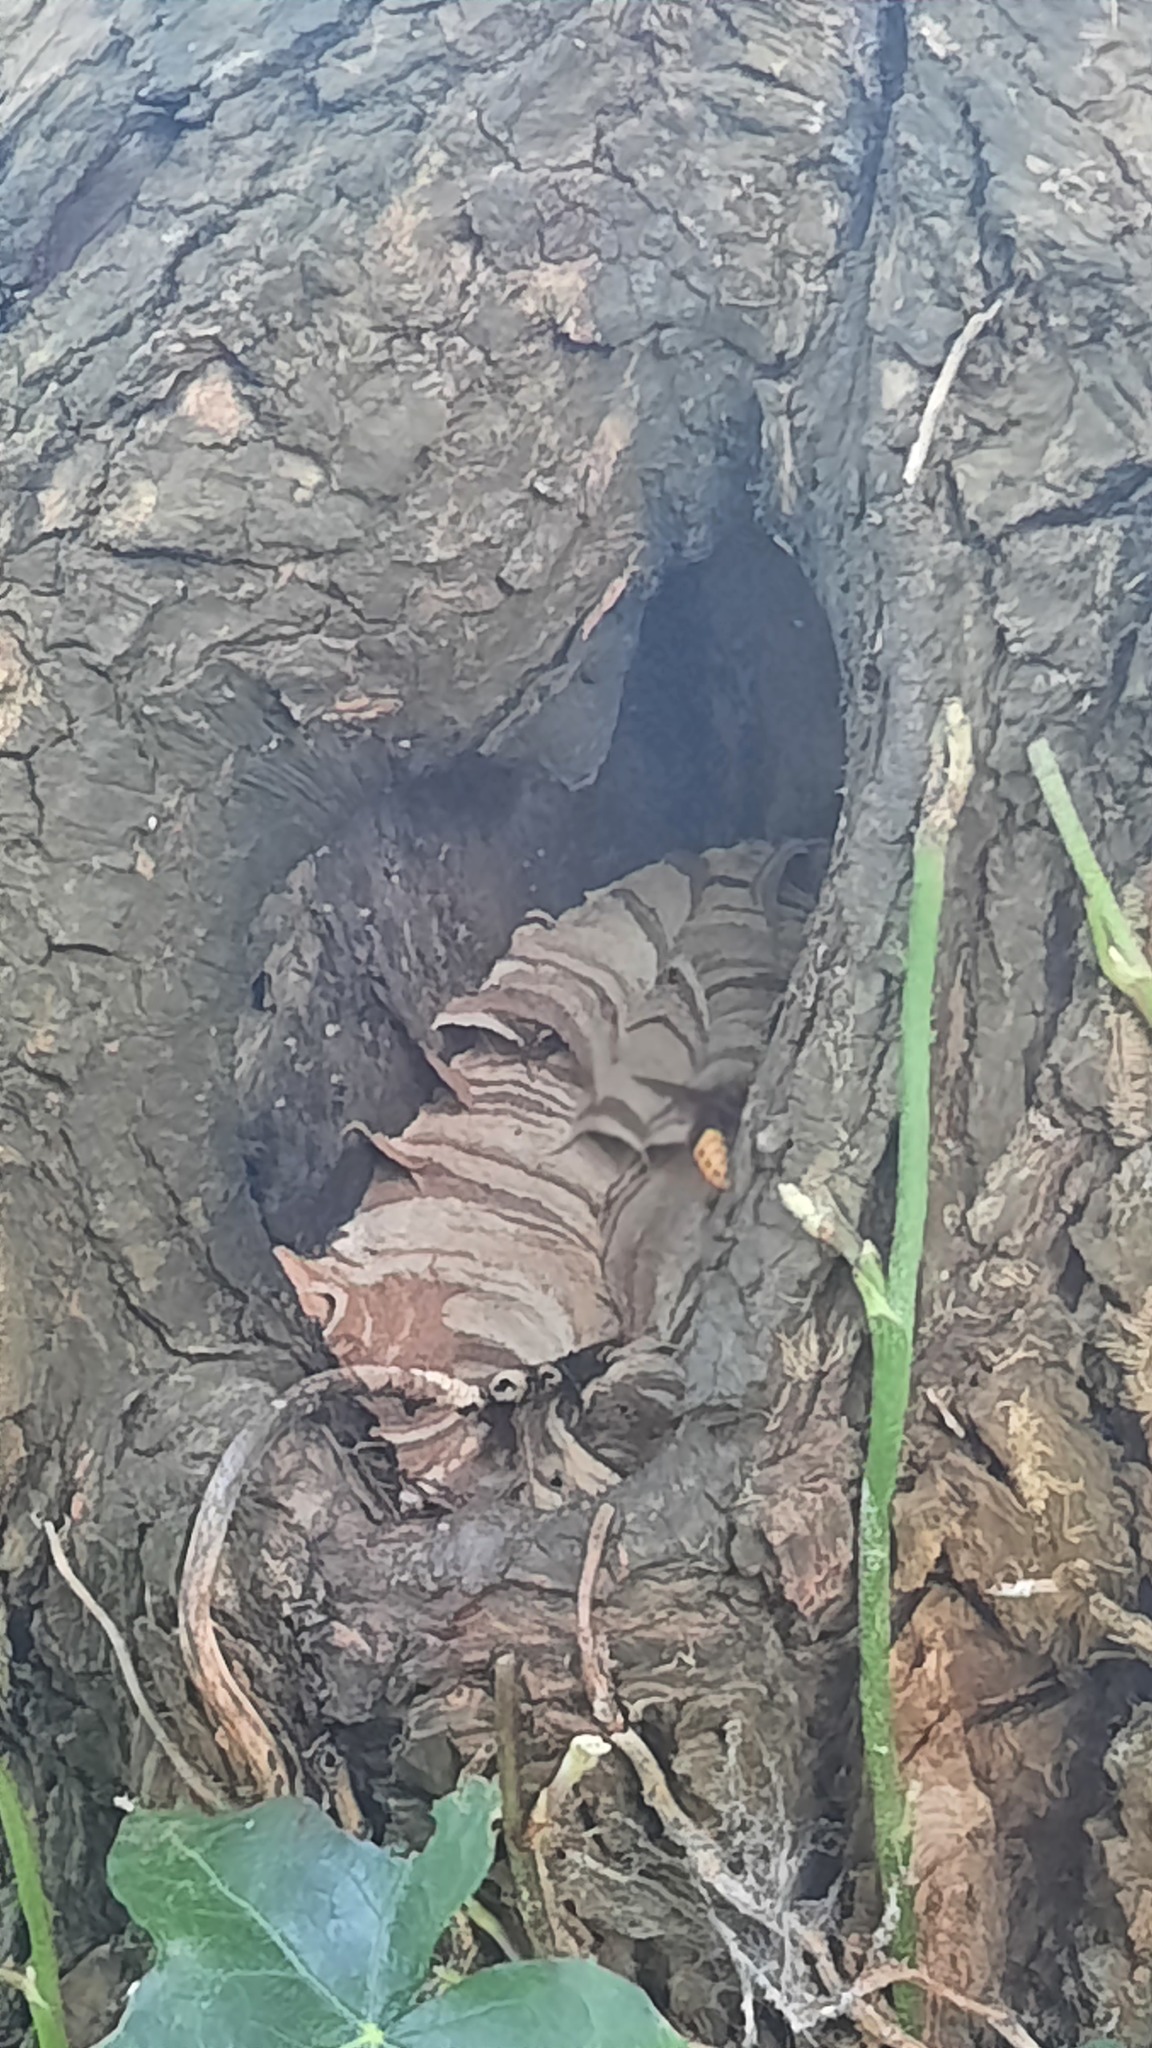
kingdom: Animalia
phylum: Arthropoda
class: Insecta
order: Hymenoptera
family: Vespidae
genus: Vespa
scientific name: Vespa crabro
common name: Hornet
